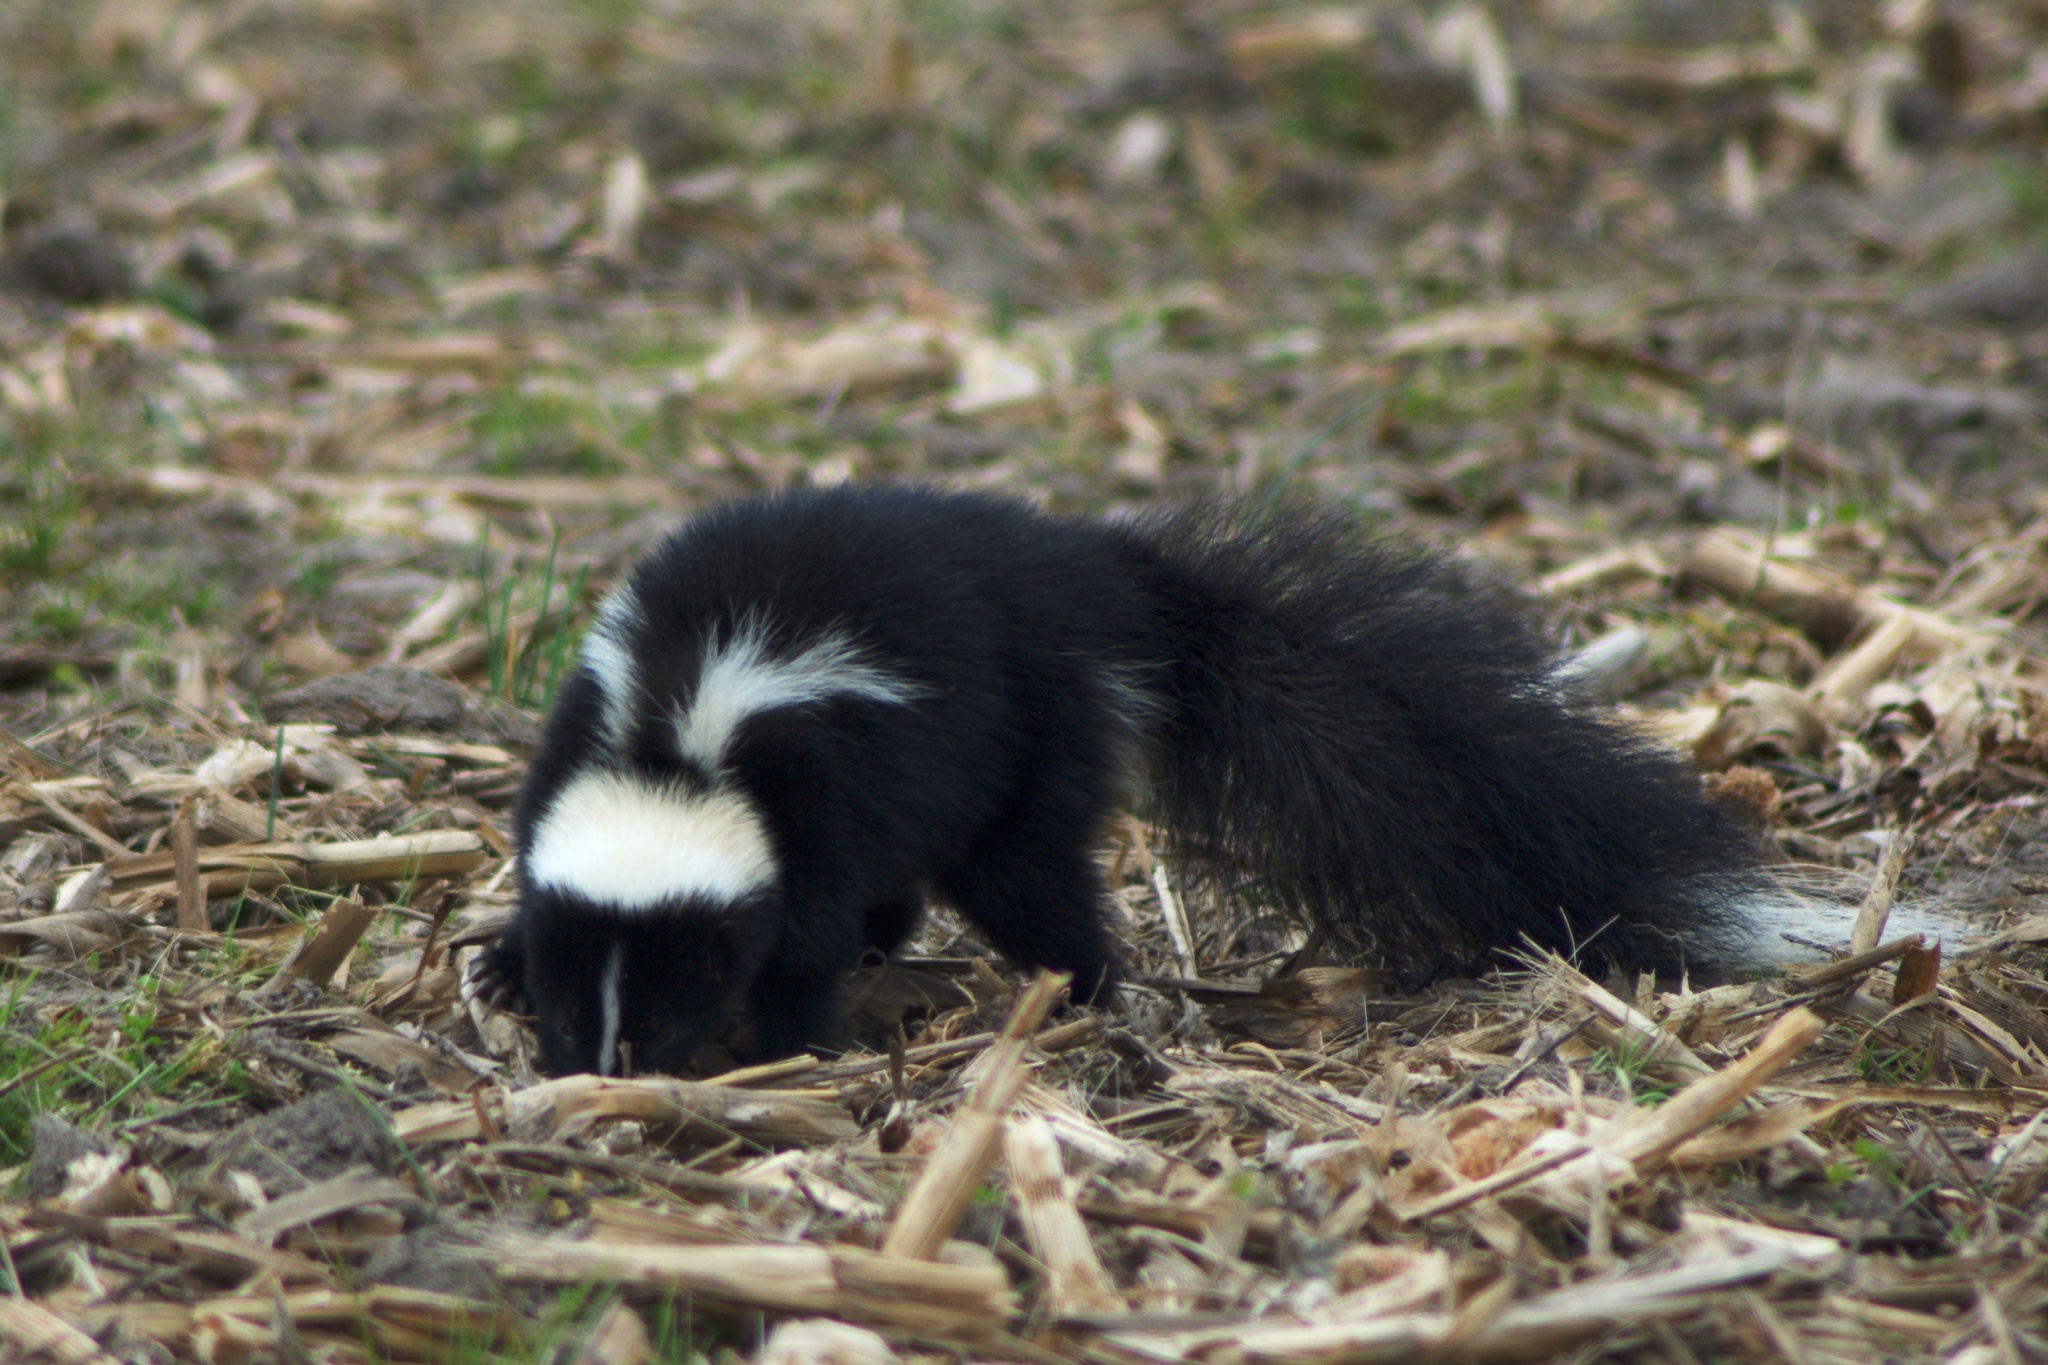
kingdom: Animalia
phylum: Chordata
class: Mammalia
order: Carnivora
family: Mephitidae
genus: Mephitis
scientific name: Mephitis mephitis
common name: Striped skunk
